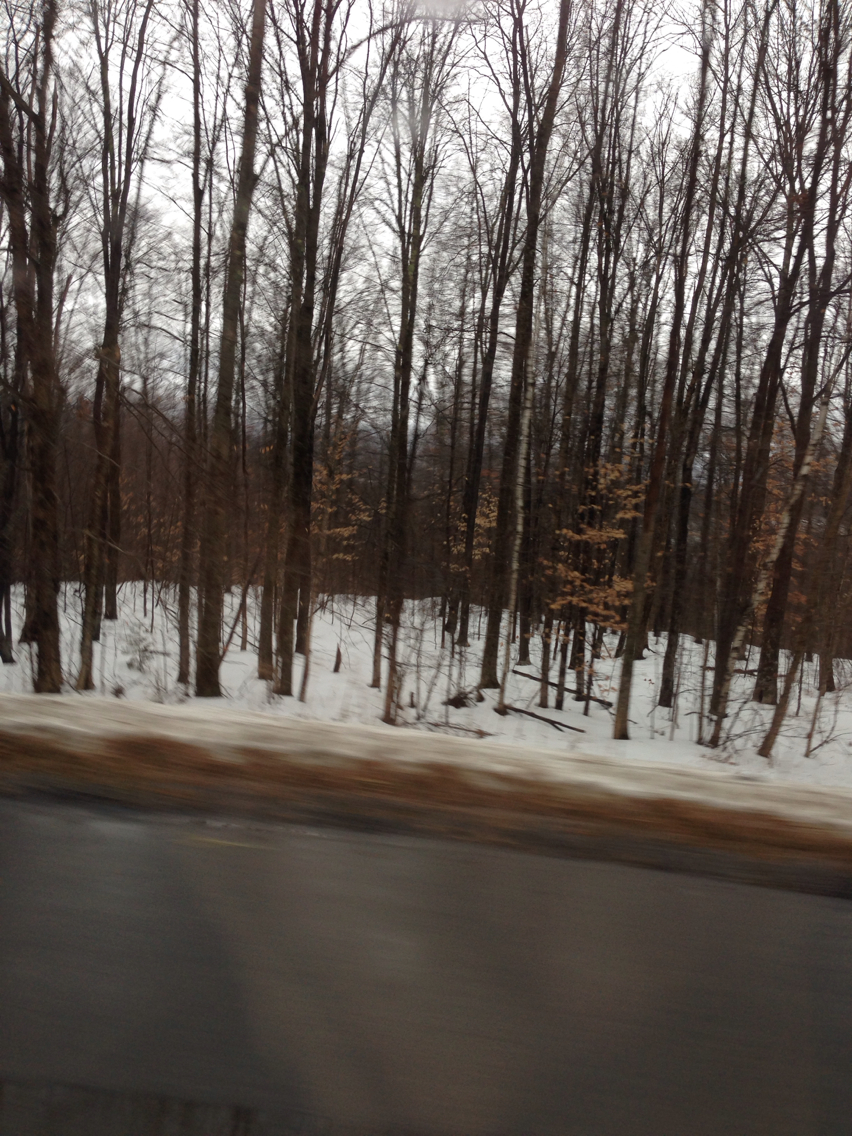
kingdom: Plantae
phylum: Tracheophyta
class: Magnoliopsida
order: Fagales
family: Fagaceae
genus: Fagus
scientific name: Fagus grandifolia
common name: American beech
